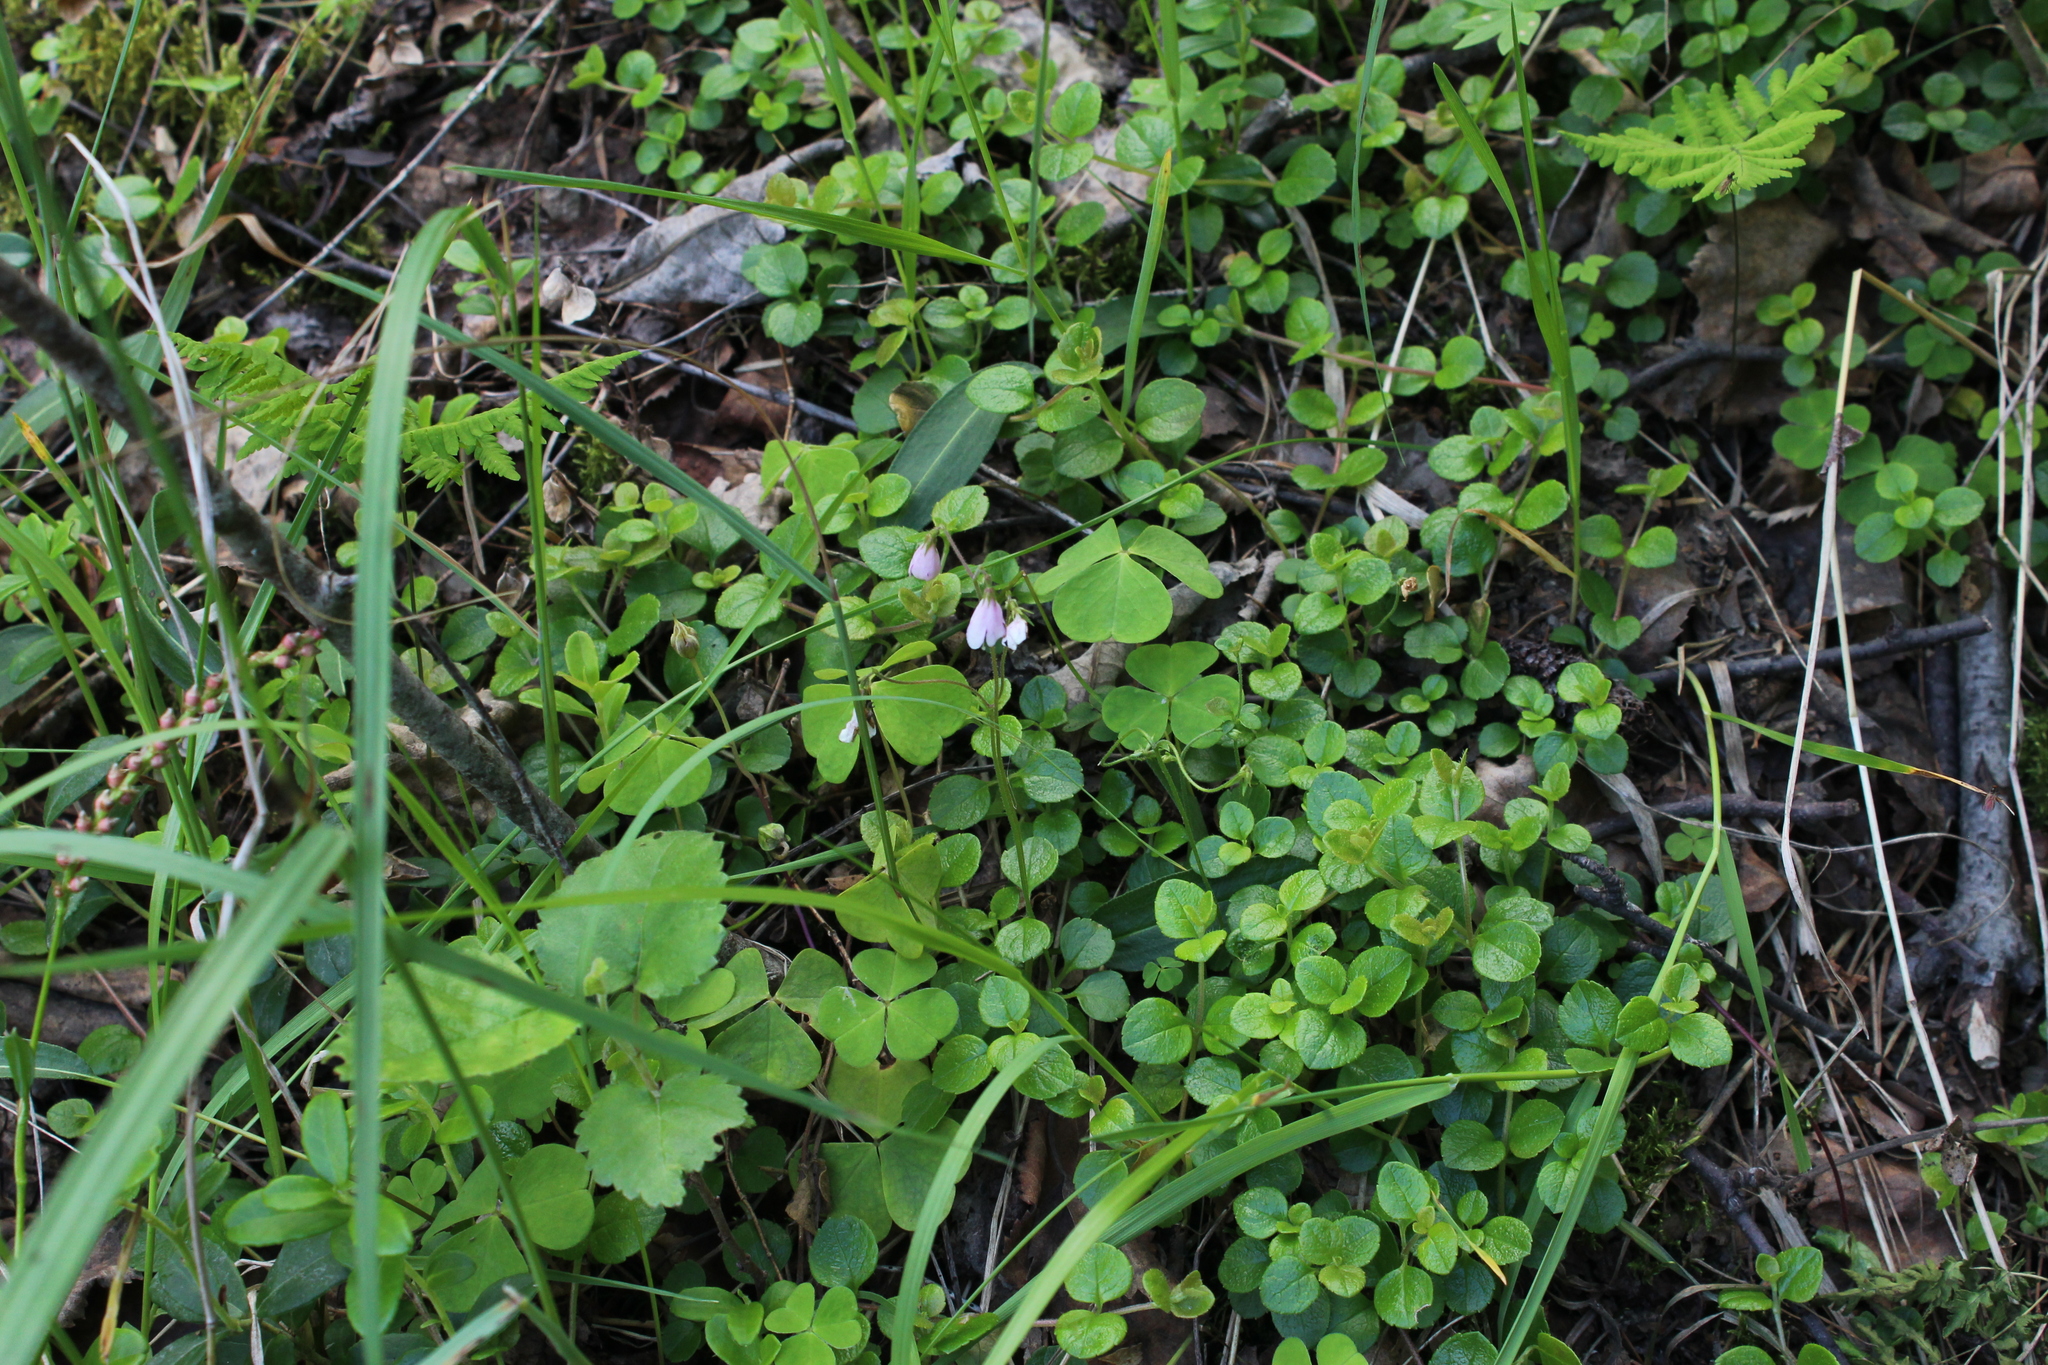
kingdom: Plantae
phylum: Tracheophyta
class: Magnoliopsida
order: Oxalidales
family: Oxalidaceae
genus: Oxalis
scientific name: Oxalis acetosella
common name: Wood-sorrel
